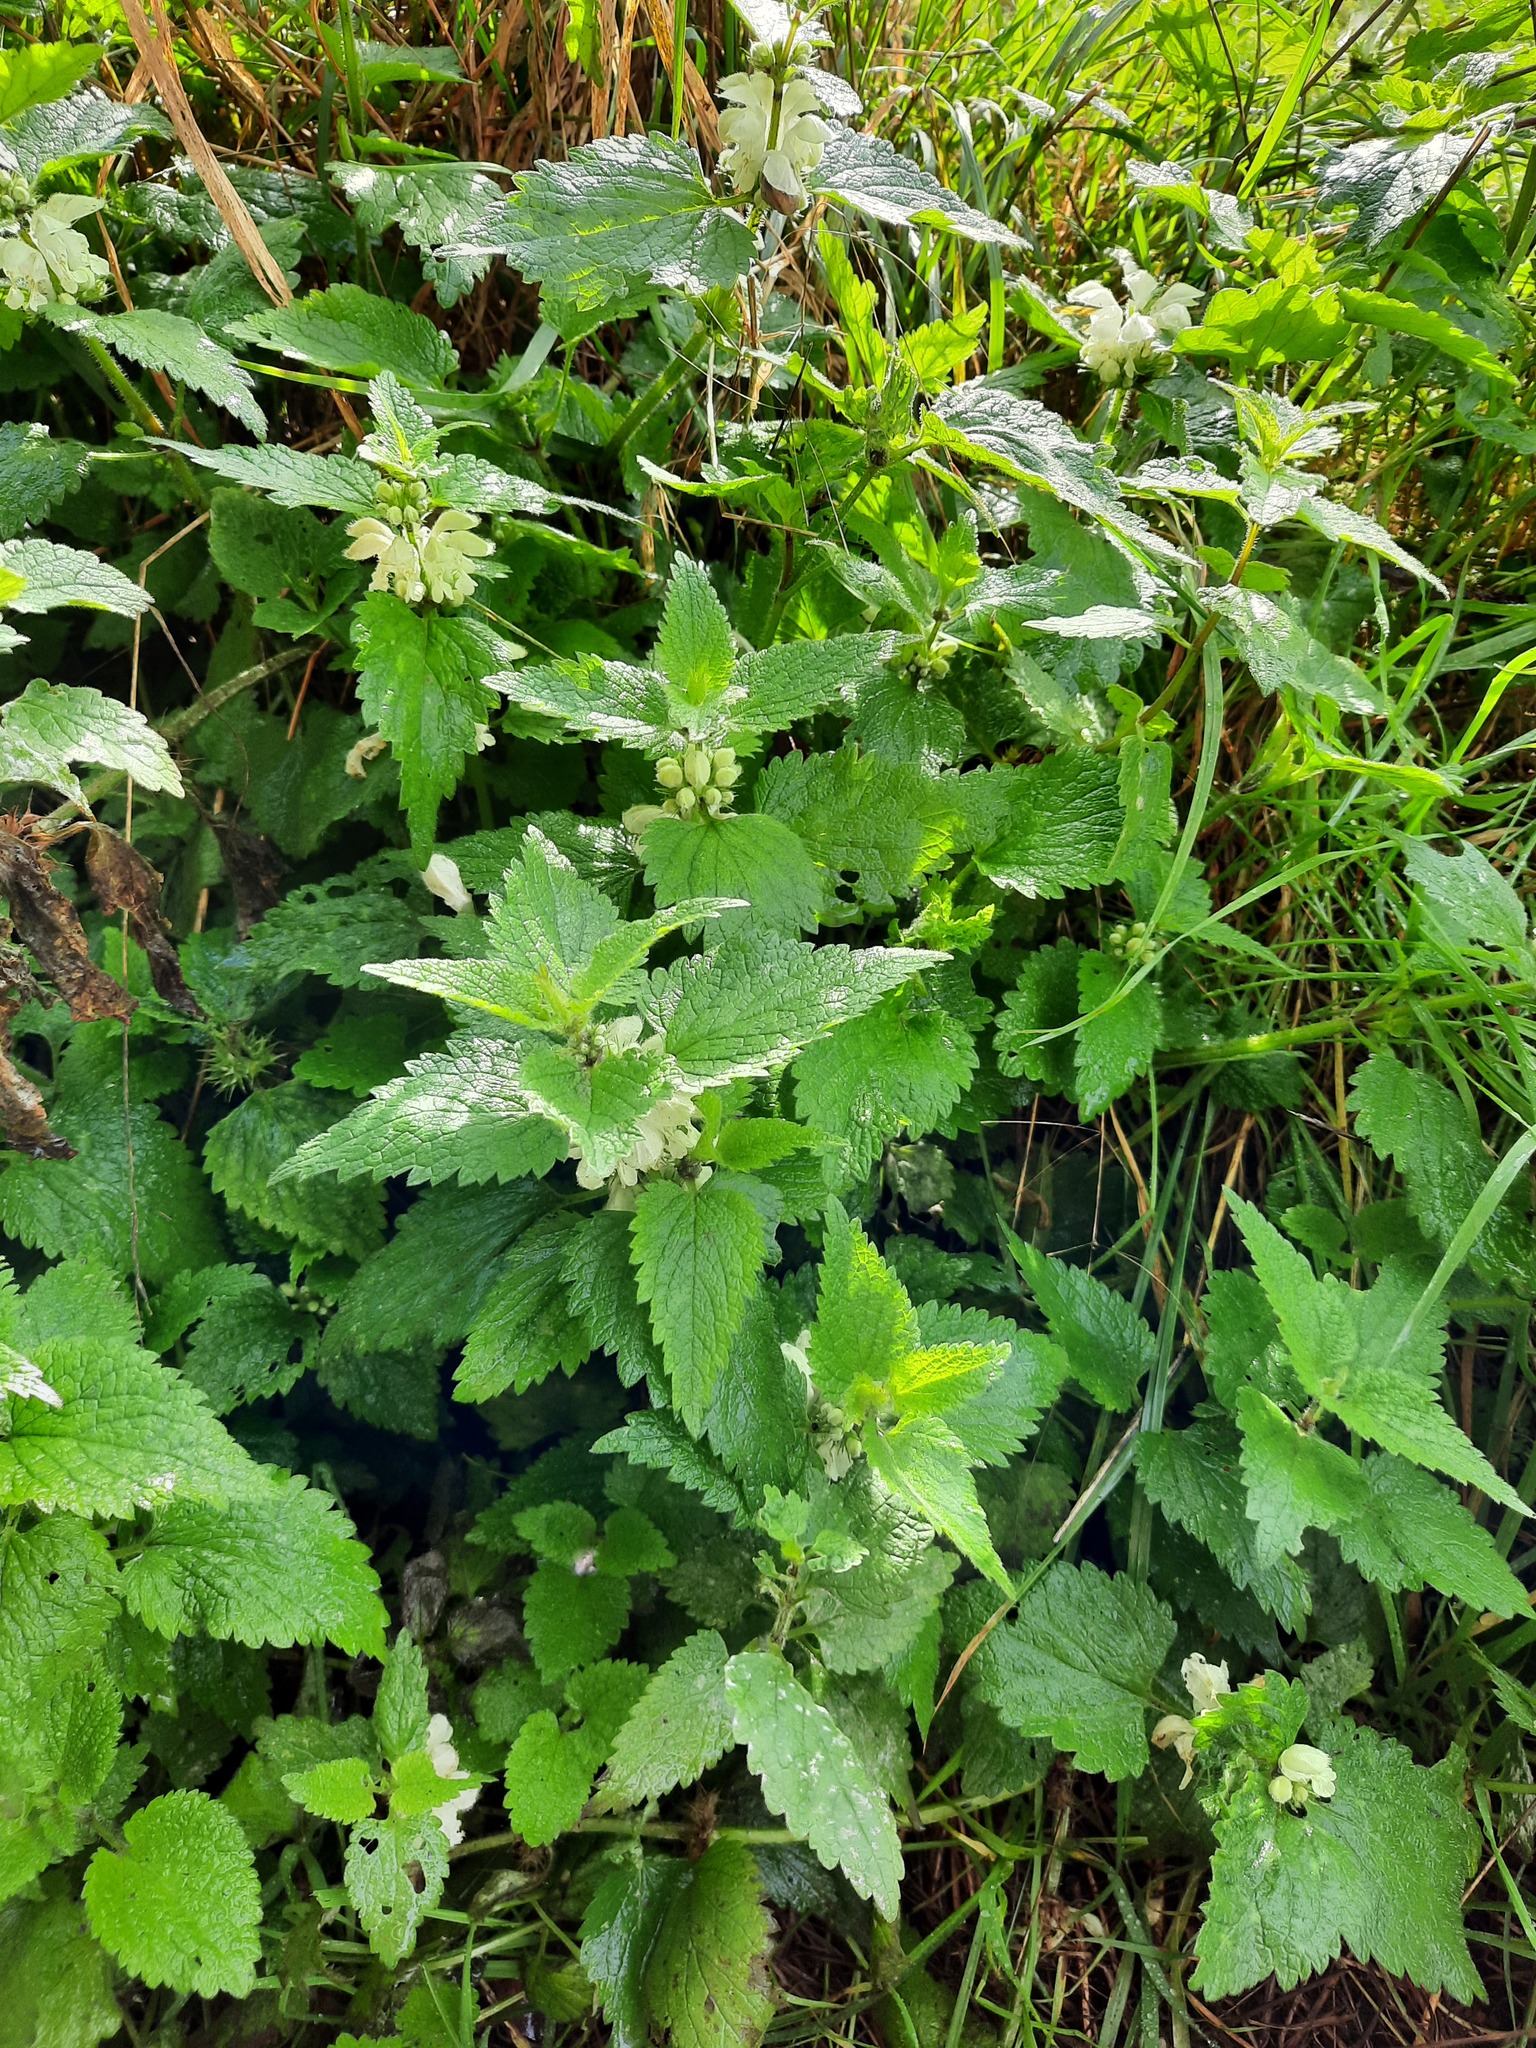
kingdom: Plantae
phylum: Tracheophyta
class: Magnoliopsida
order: Lamiales
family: Lamiaceae
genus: Lamium
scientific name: Lamium album
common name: White dead-nettle
